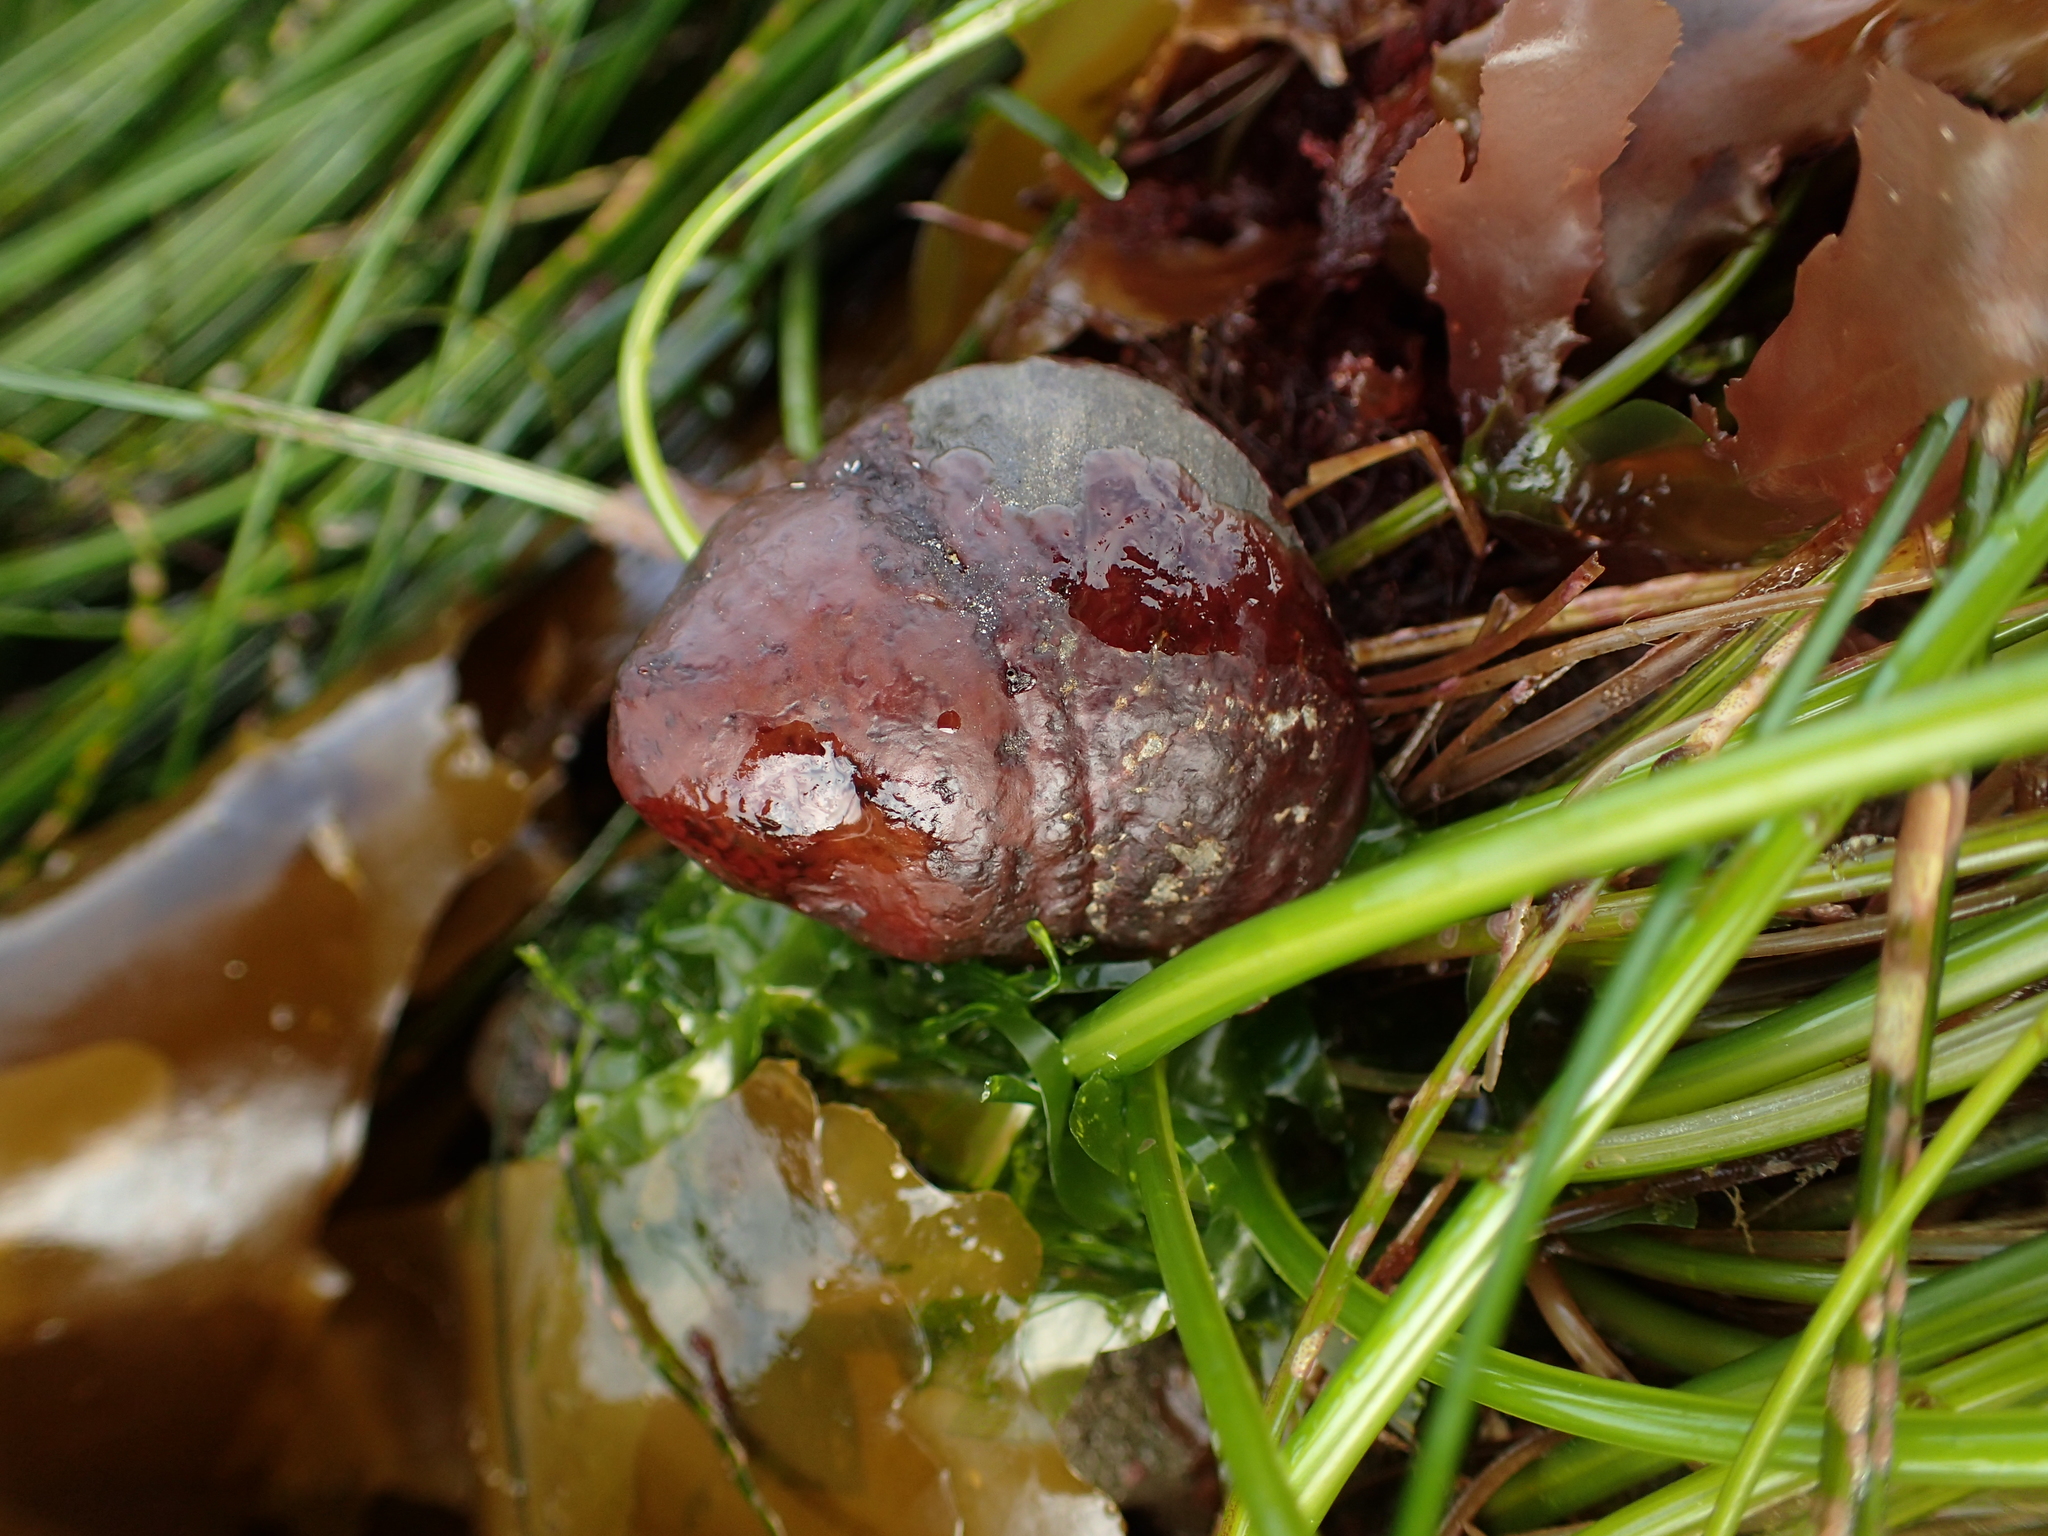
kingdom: Animalia
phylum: Mollusca
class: Gastropoda
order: Trochida
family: Tegulidae
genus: Tegula
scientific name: Tegula brunnea
